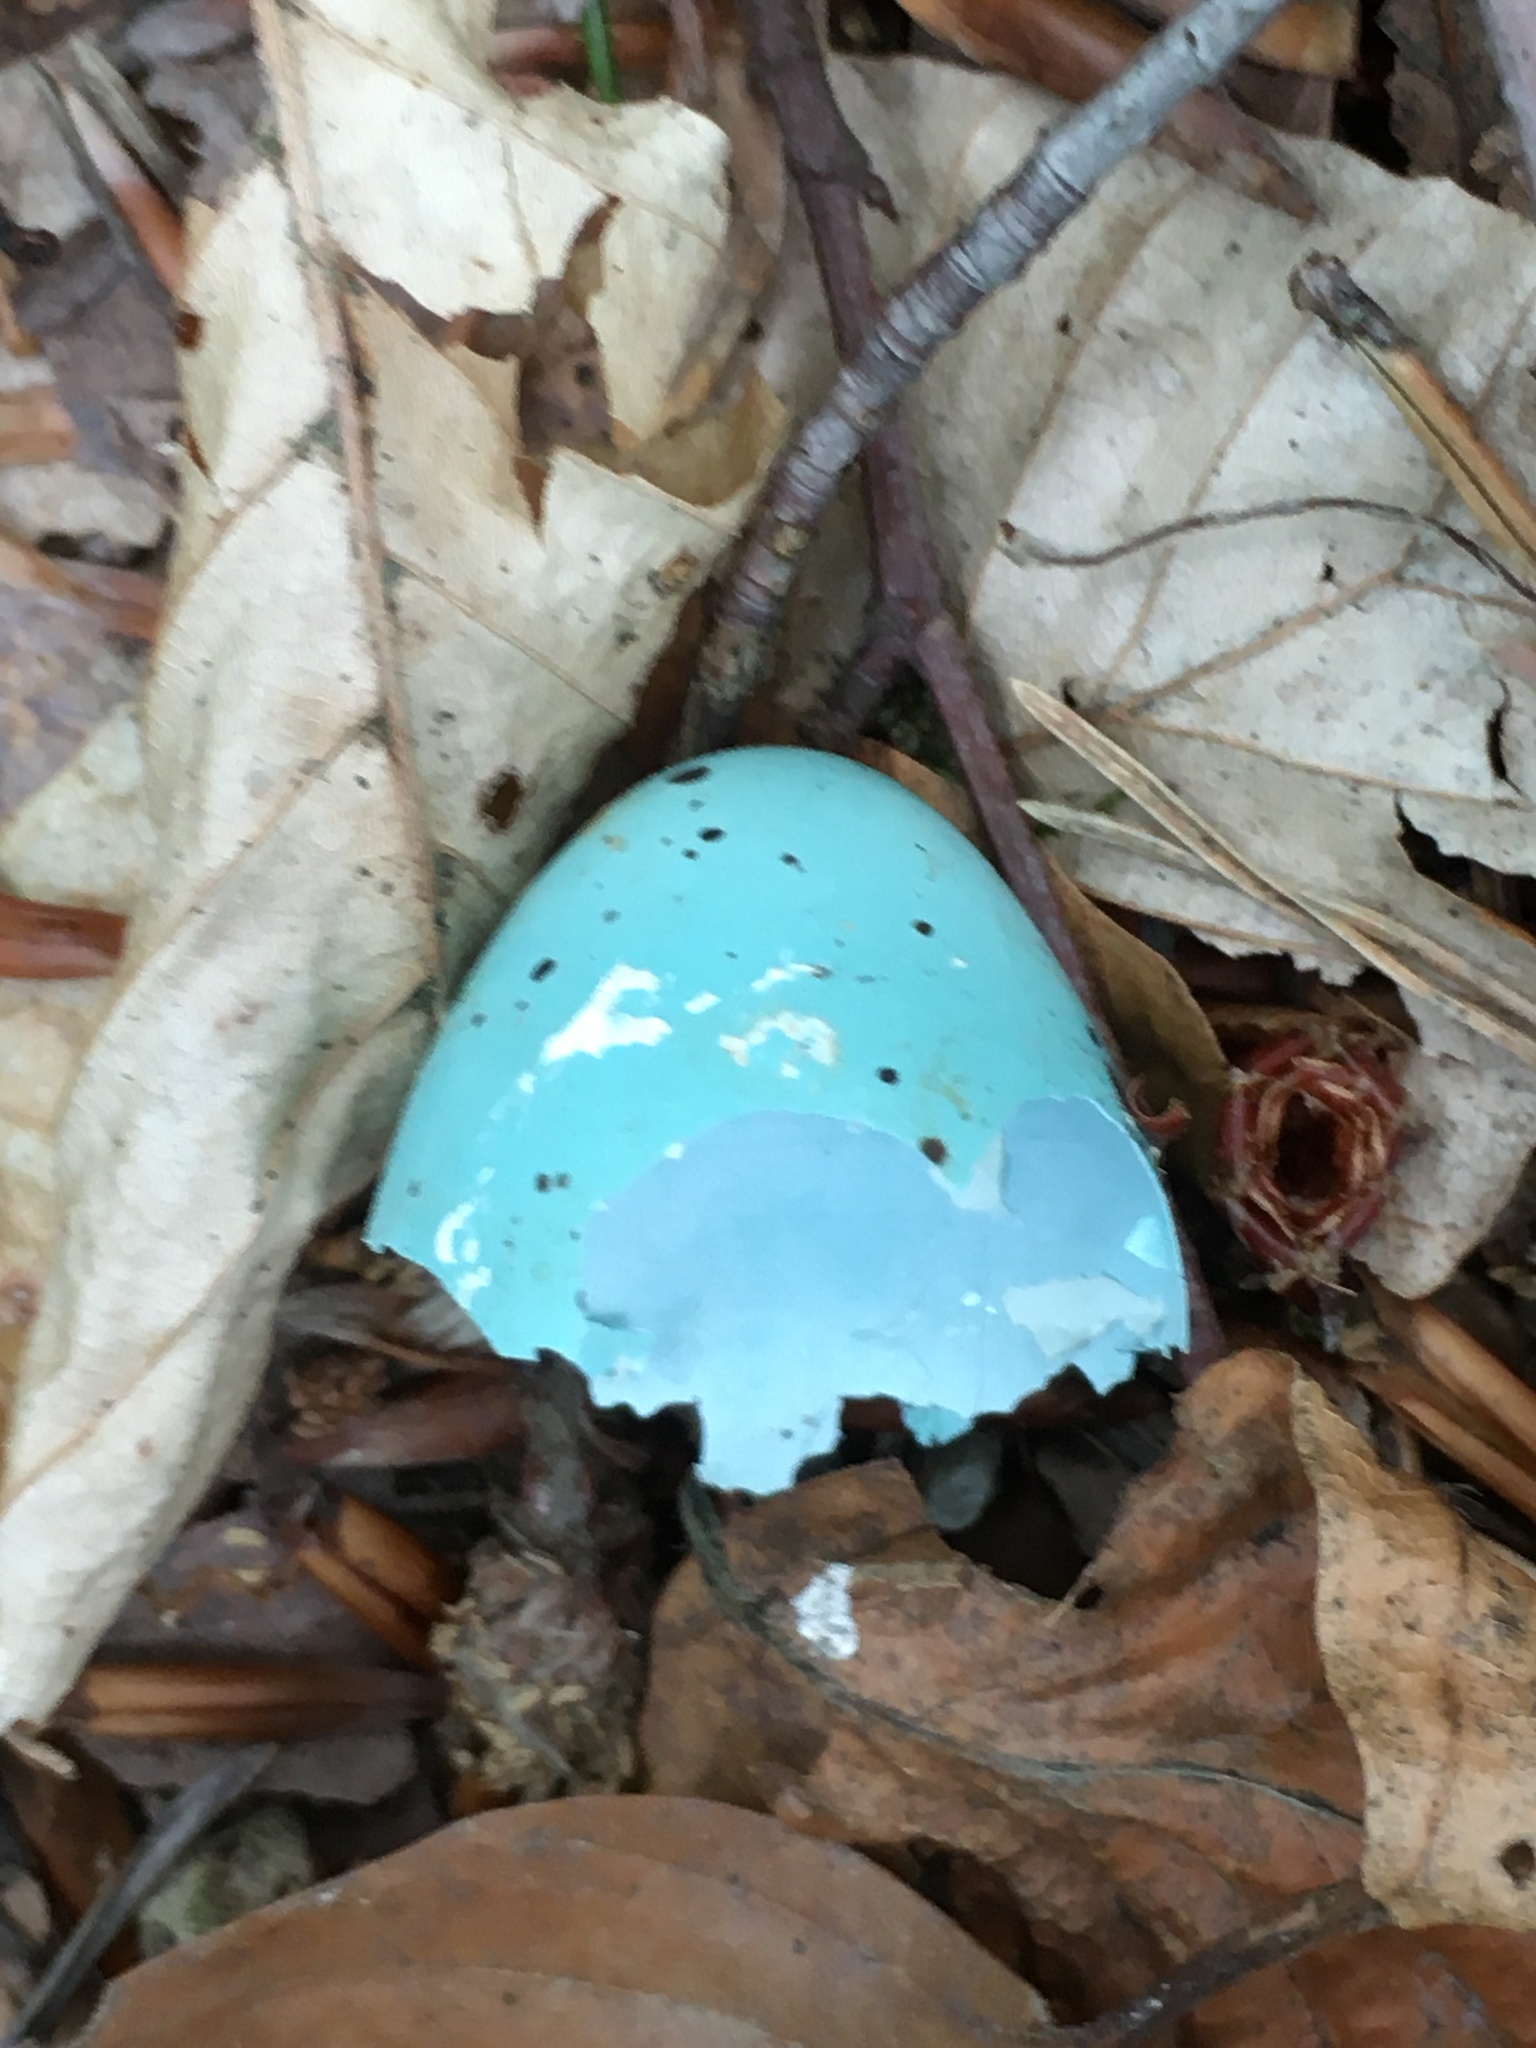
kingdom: Animalia
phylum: Chordata
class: Aves
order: Passeriformes
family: Turdidae
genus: Turdus
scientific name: Turdus philomelos
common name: Song thrush
